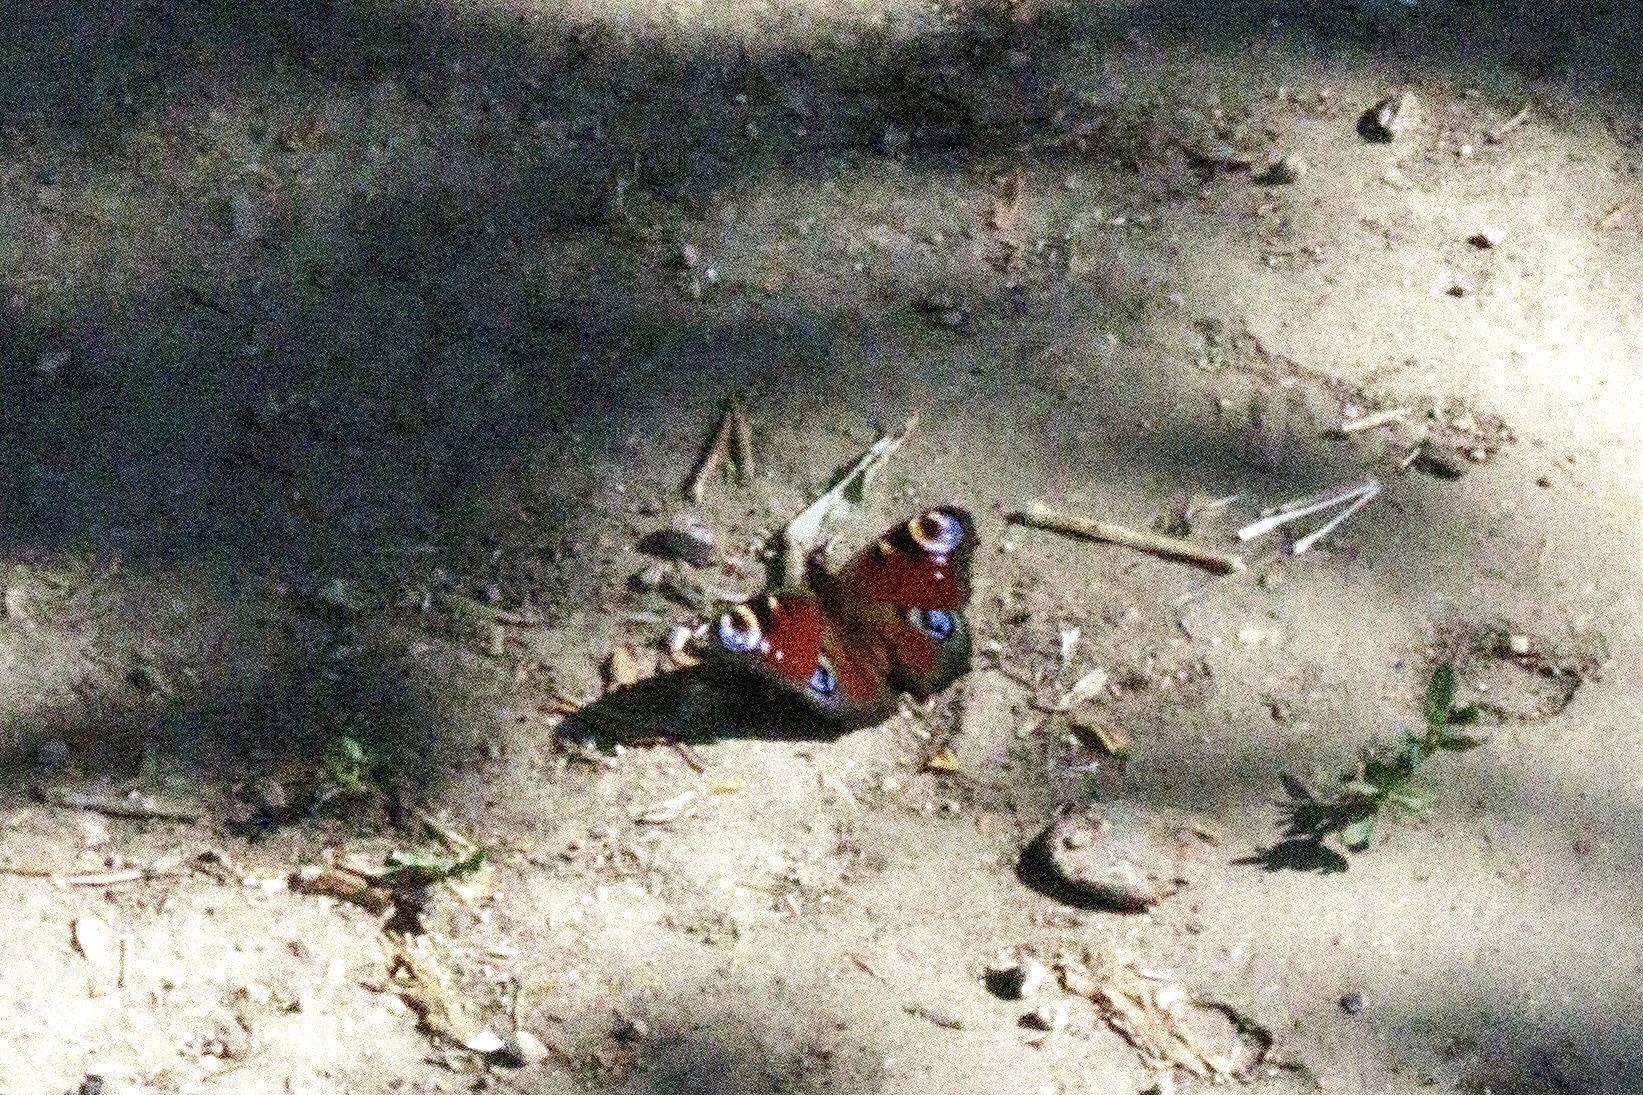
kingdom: Animalia
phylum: Arthropoda
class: Insecta
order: Lepidoptera
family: Nymphalidae
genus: Aglais
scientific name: Aglais io
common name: Peacock
